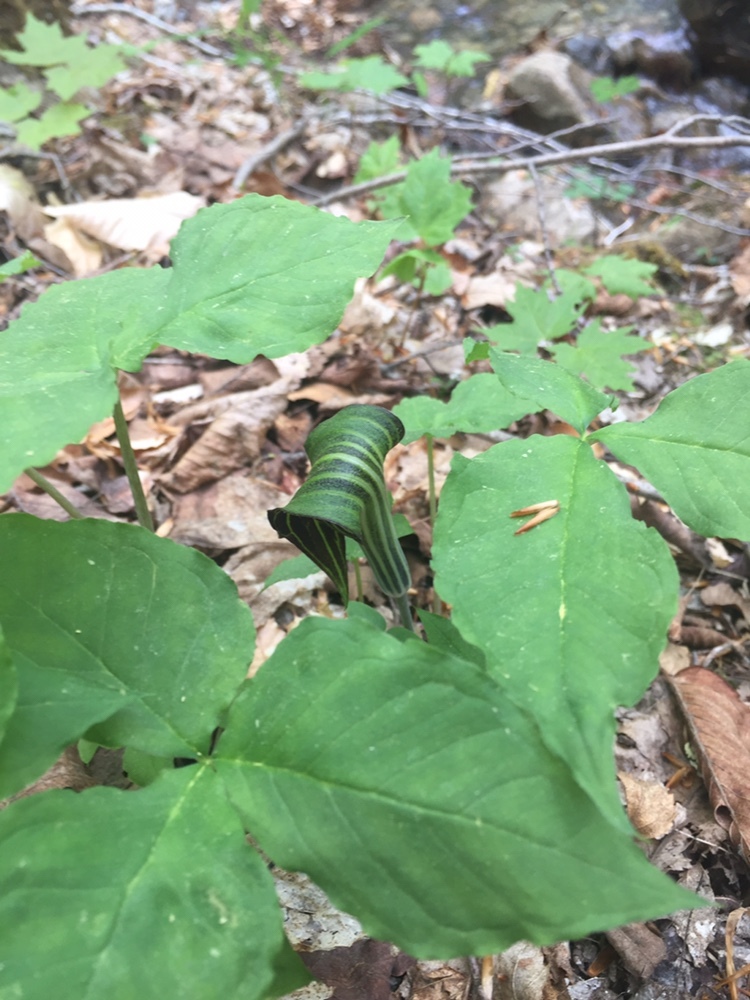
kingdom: Plantae
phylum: Tracheophyta
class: Liliopsida
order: Alismatales
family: Araceae
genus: Arisaema
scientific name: Arisaema triphyllum
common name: Jack-in-the-pulpit
